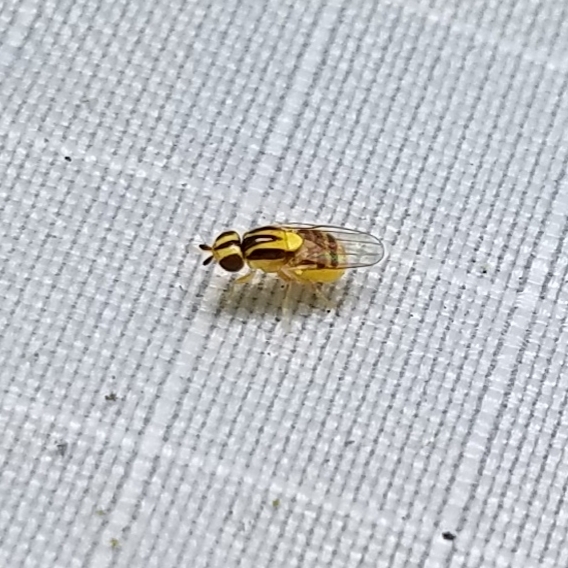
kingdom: Animalia
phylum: Arthropoda
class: Insecta
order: Diptera
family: Chloropidae
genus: Thaumatomyia
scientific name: Thaumatomyia glabra
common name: Chloropid fly
